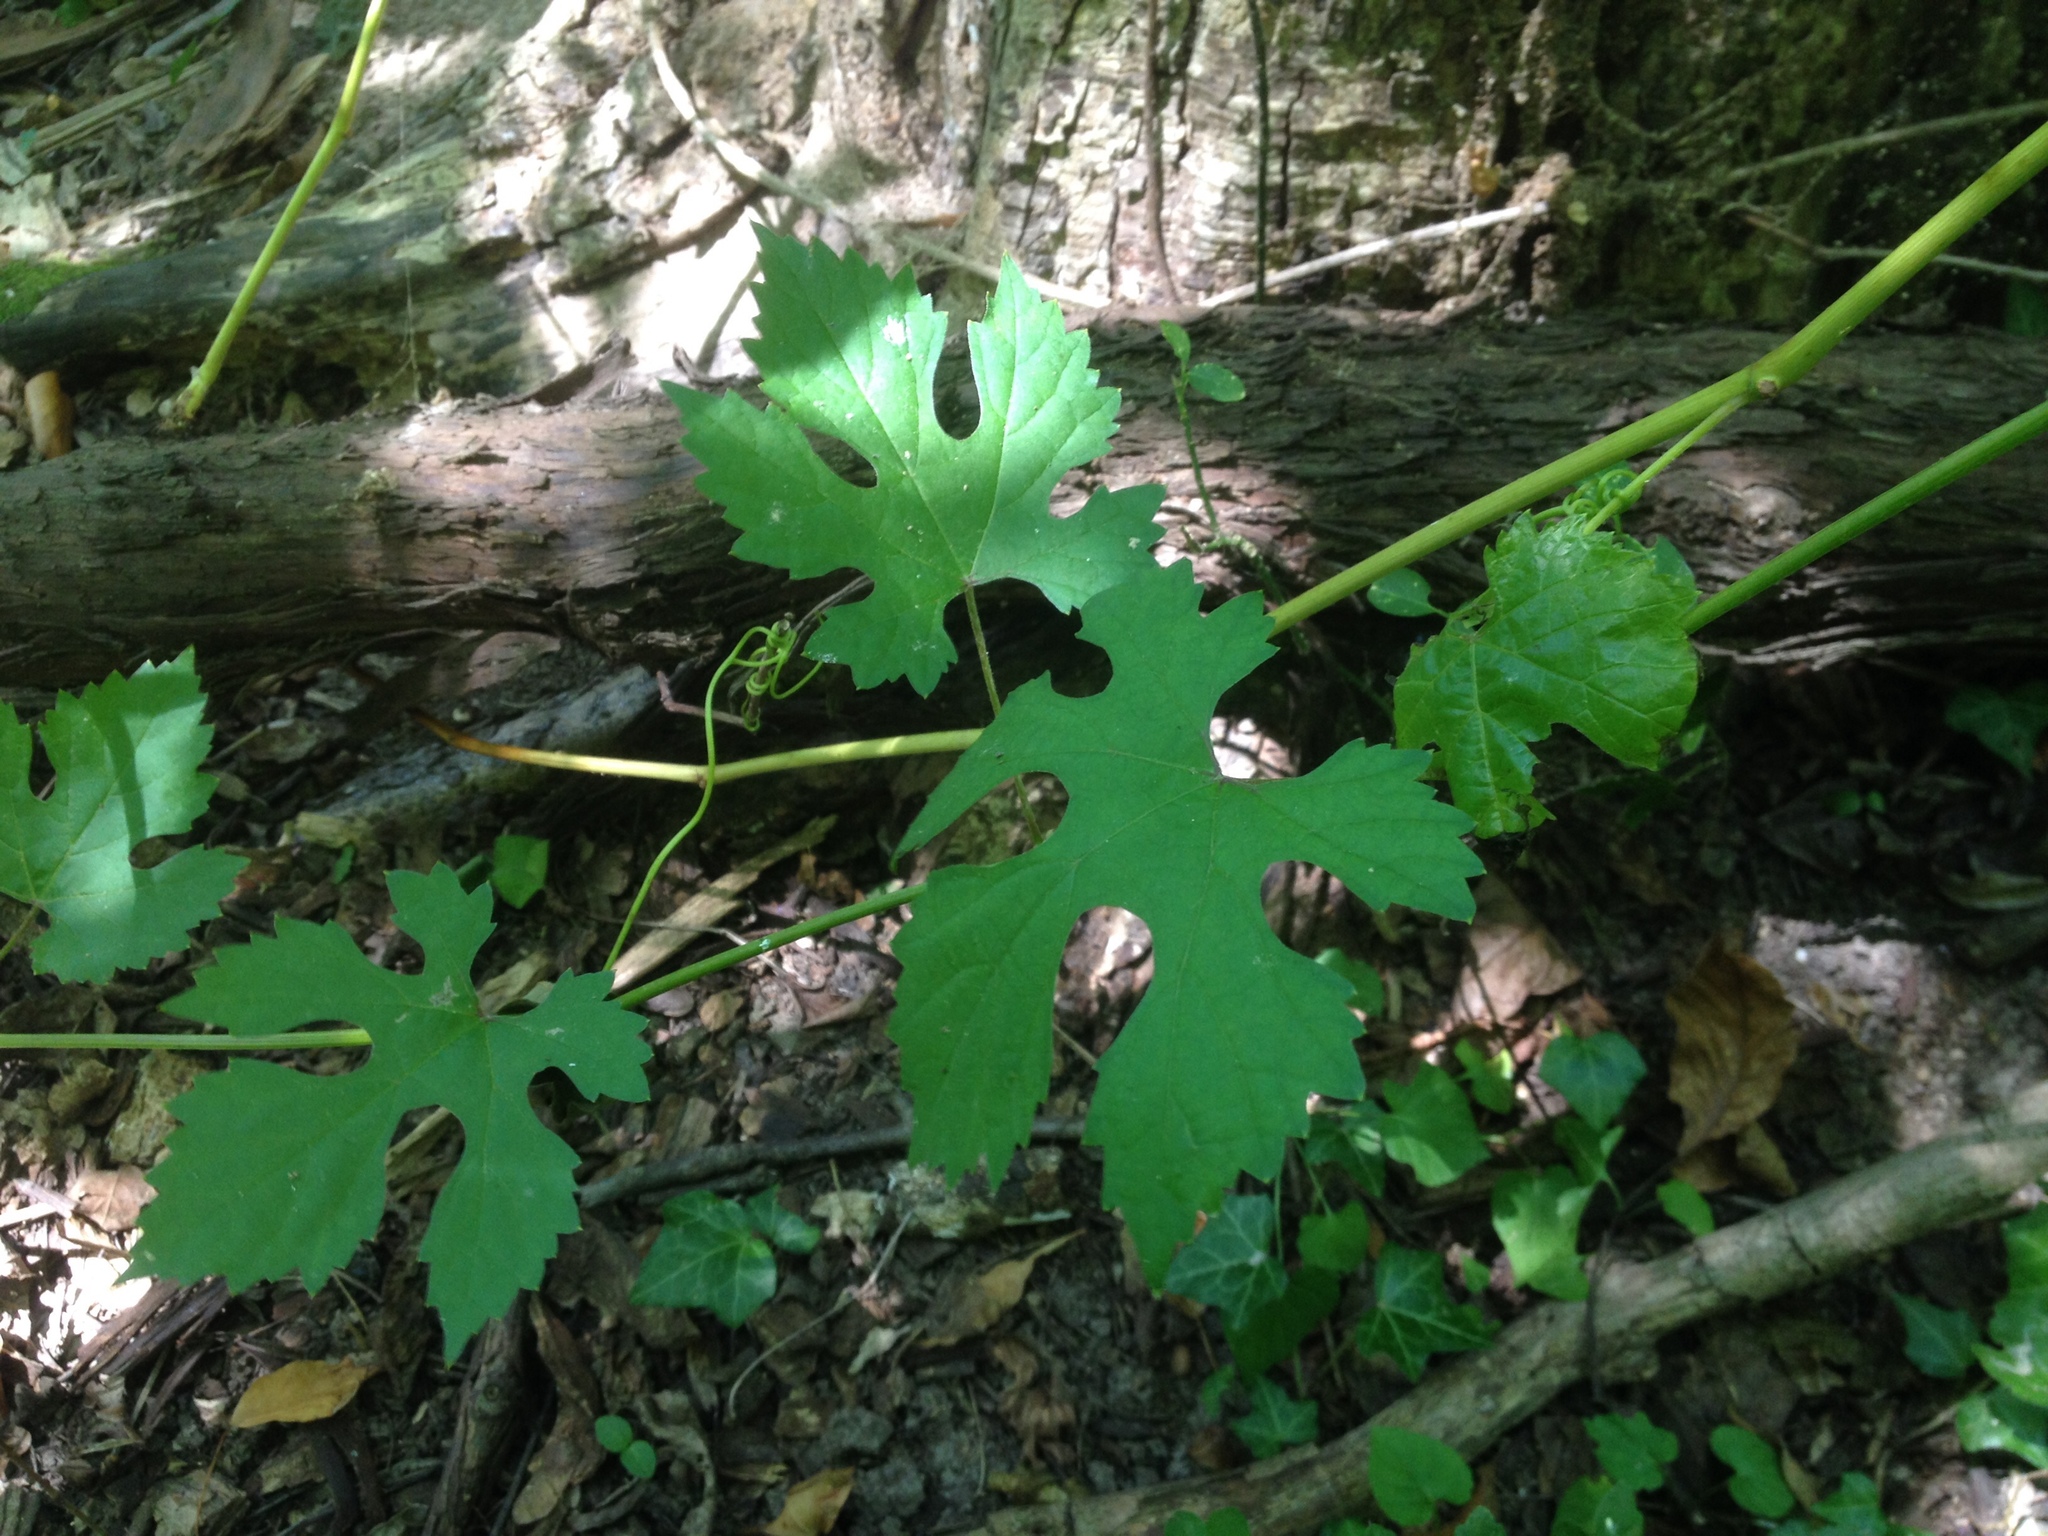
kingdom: Plantae
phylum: Tracheophyta
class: Magnoliopsida
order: Vitales
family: Vitaceae
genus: Vitis
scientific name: Vitis gmelinii
